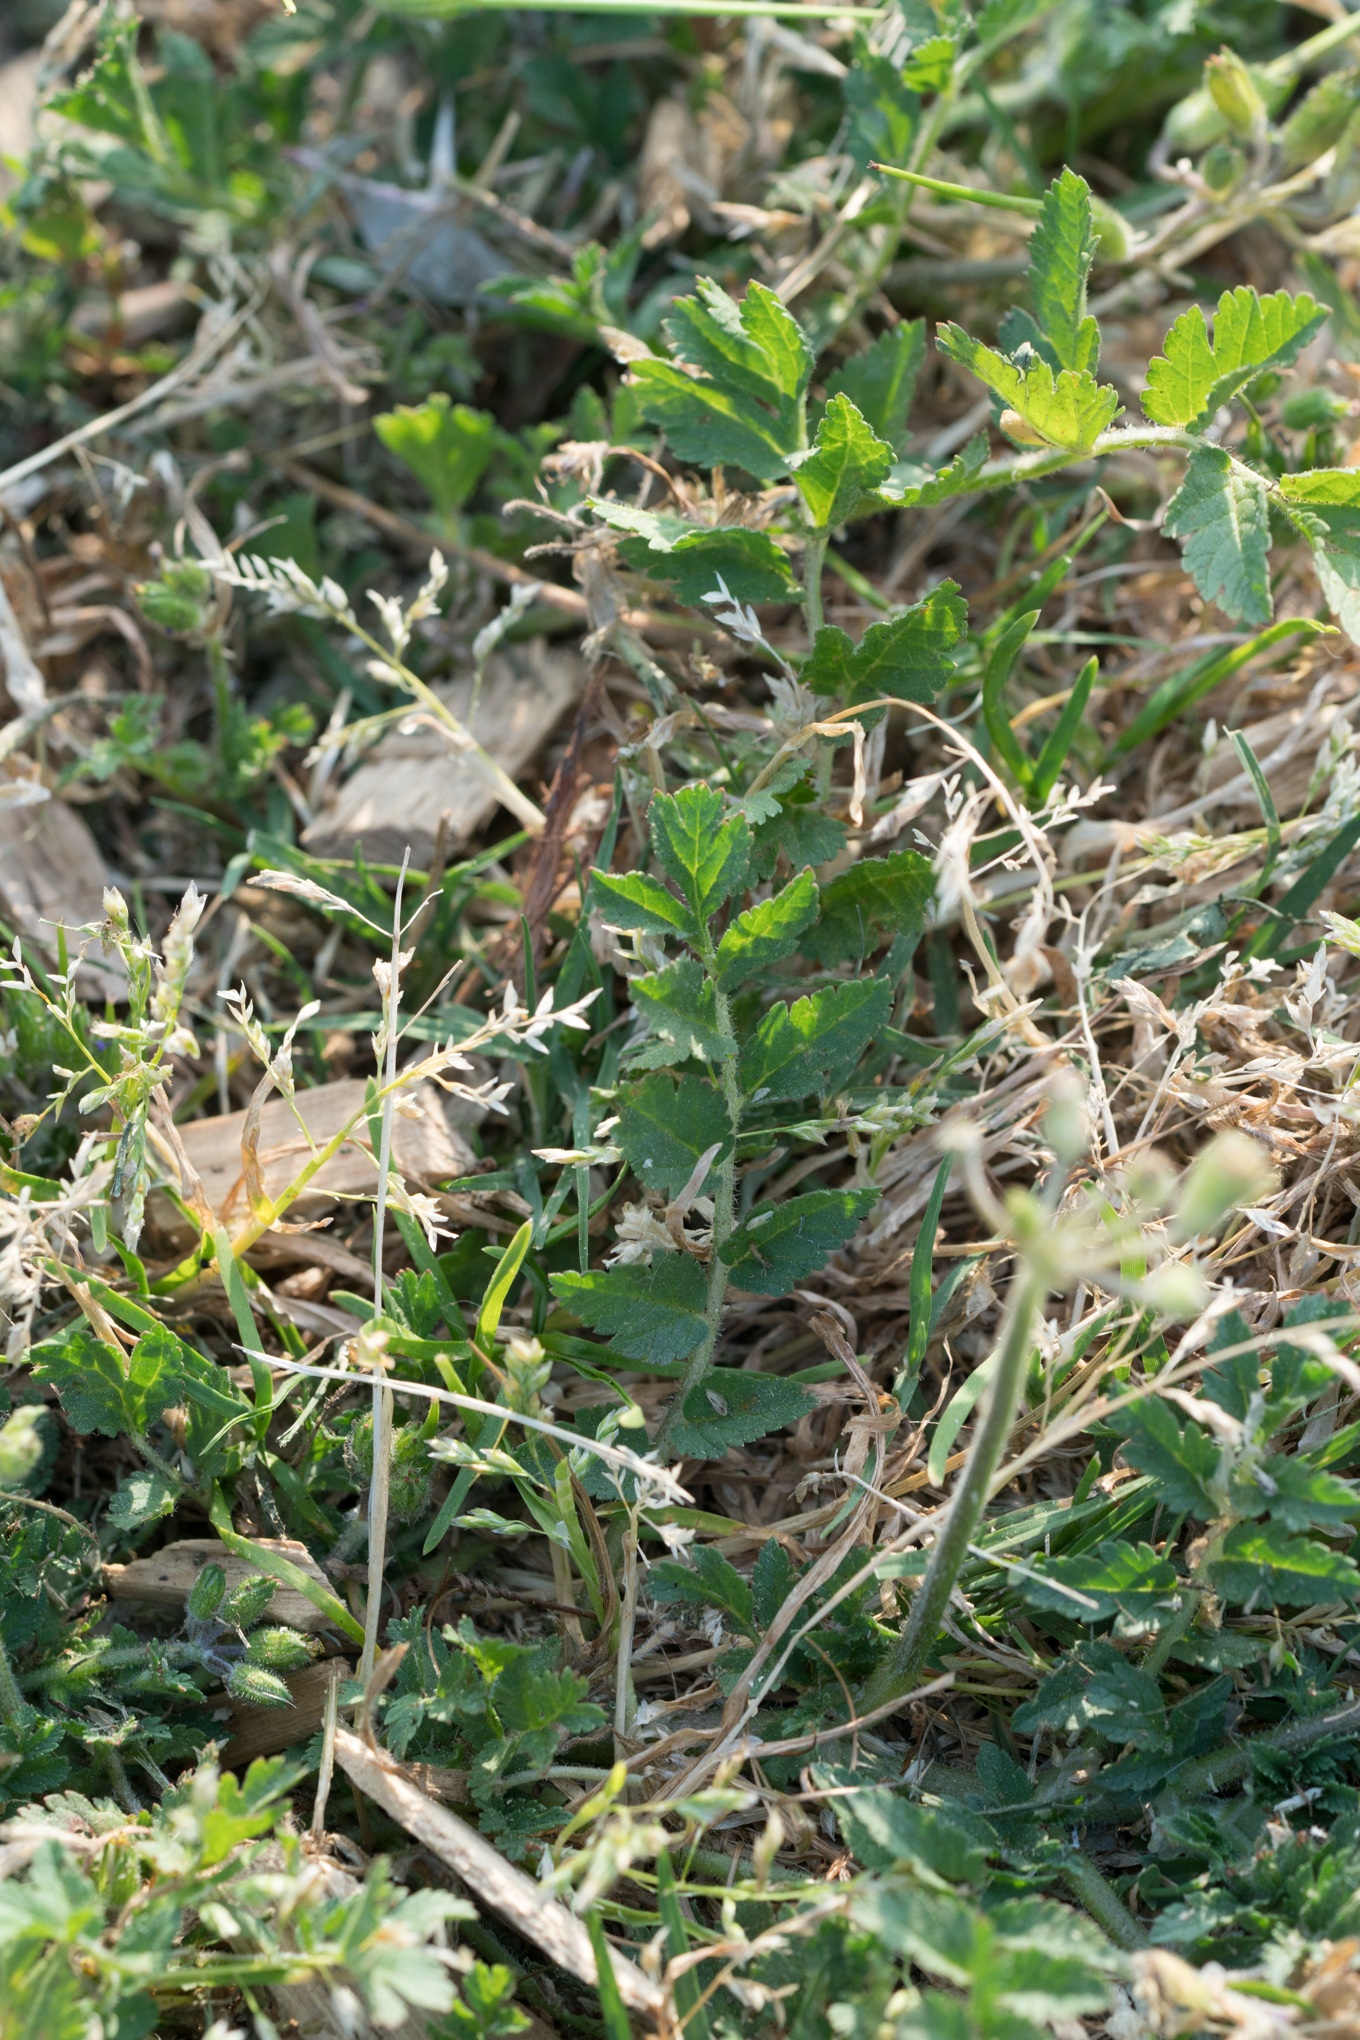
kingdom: Plantae
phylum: Tracheophyta
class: Magnoliopsida
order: Geraniales
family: Geraniaceae
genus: Erodium
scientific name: Erodium moschatum
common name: Musk stork's-bill
